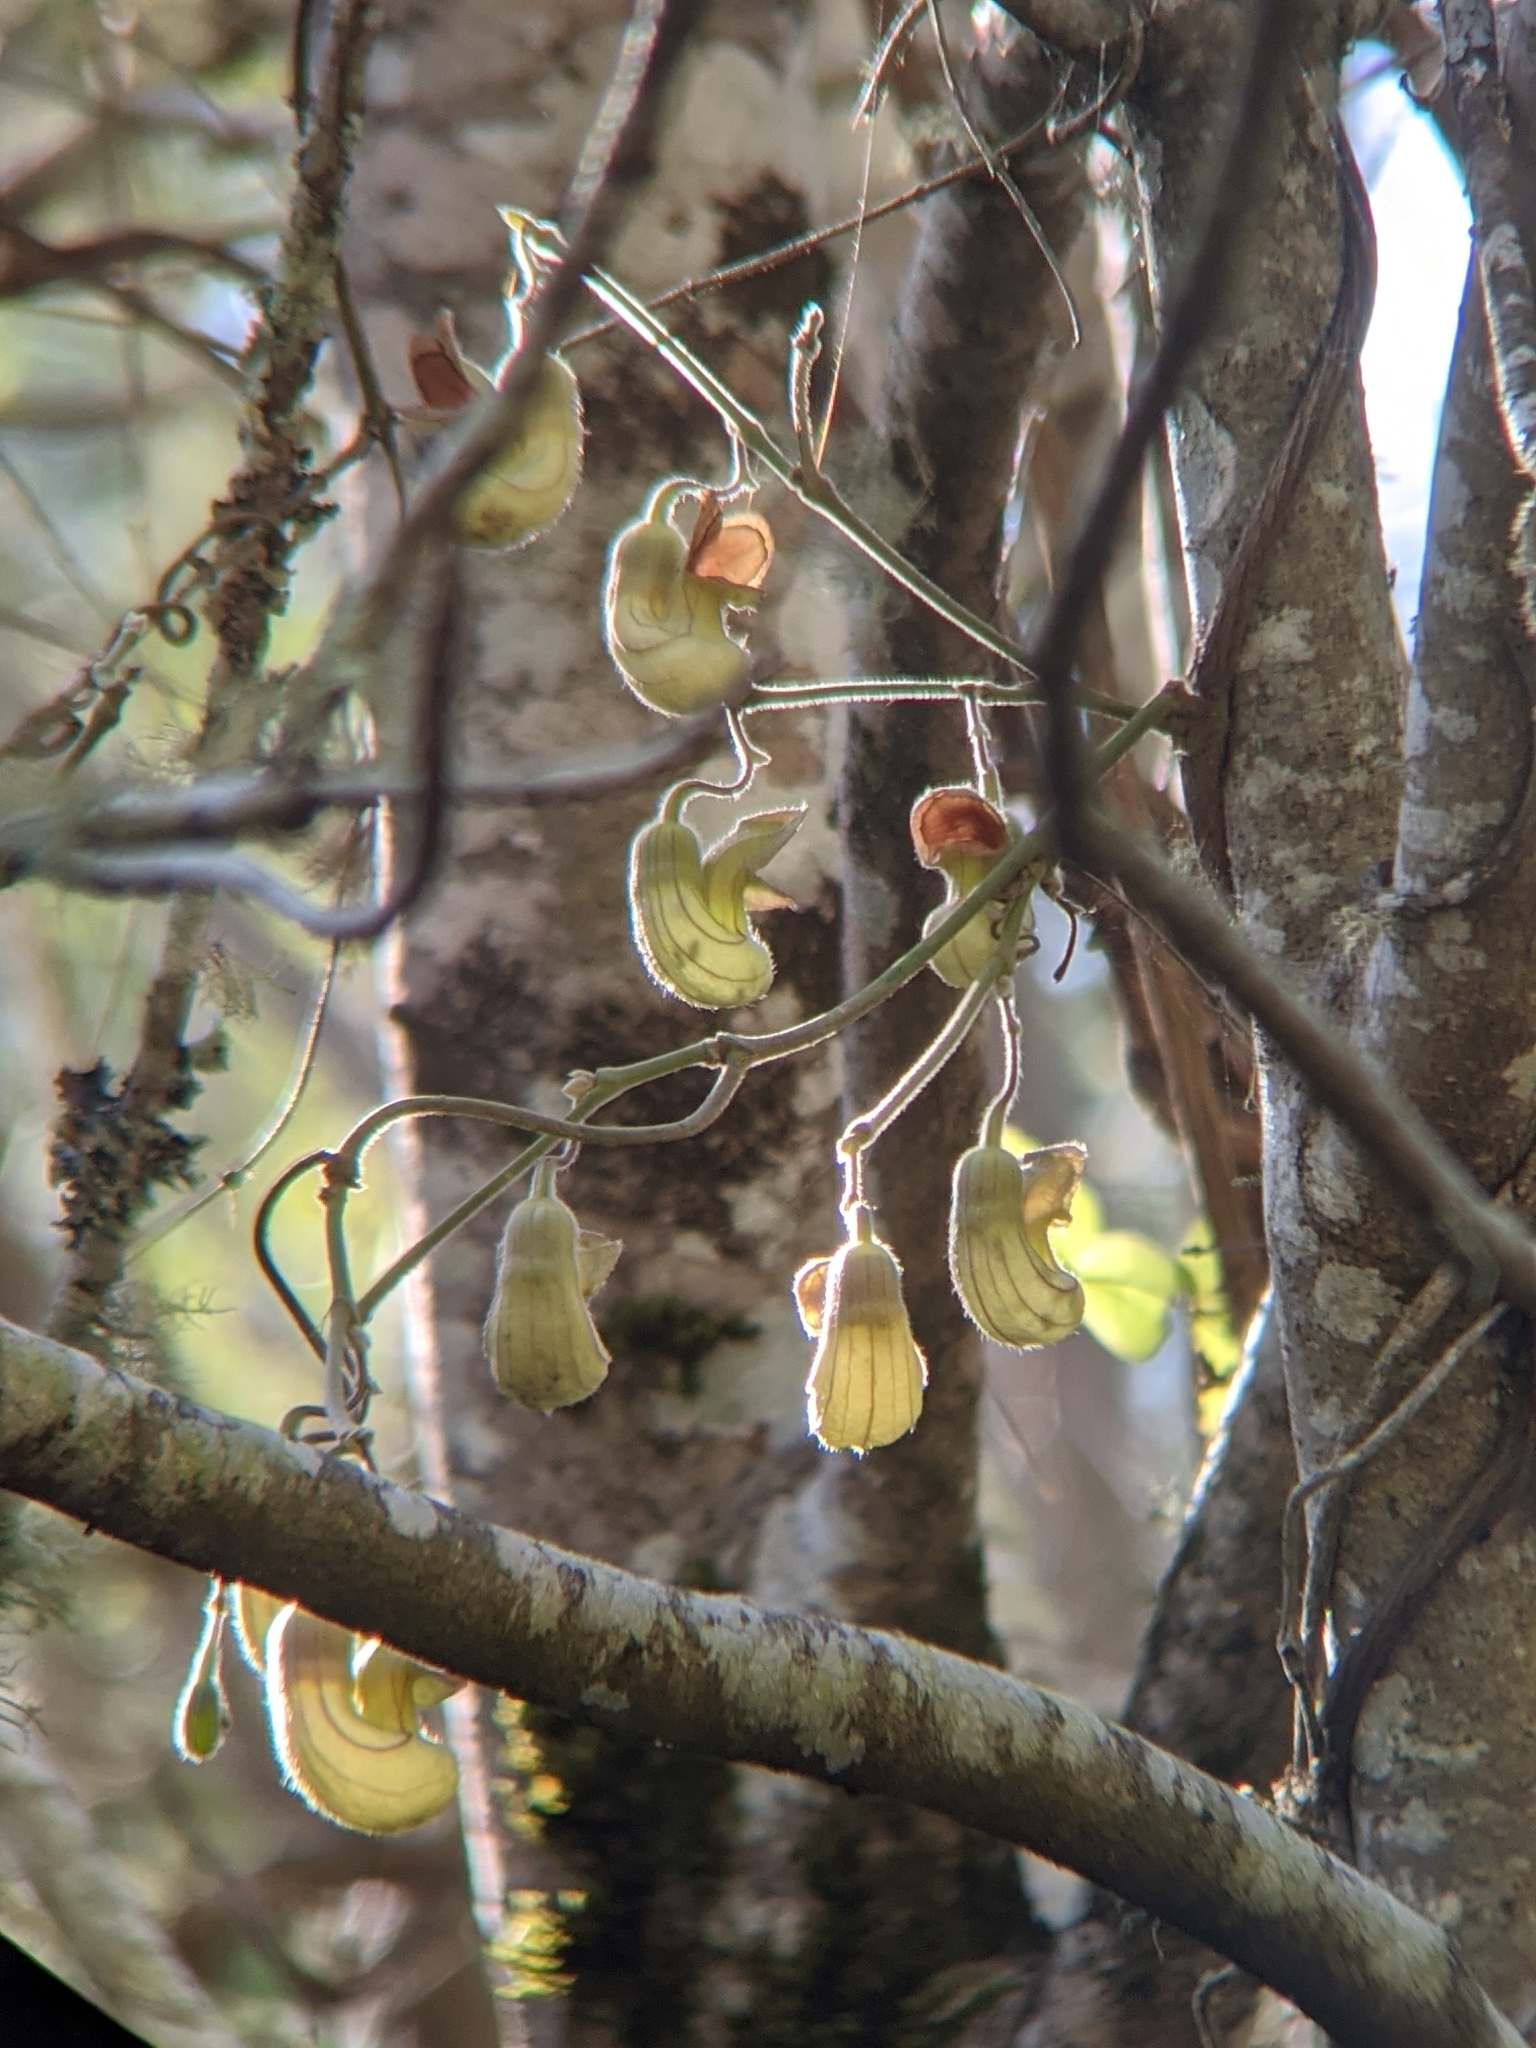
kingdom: Plantae
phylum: Tracheophyta
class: Magnoliopsida
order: Piperales
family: Aristolochiaceae
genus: Isotrema
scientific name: Isotrema californicum
